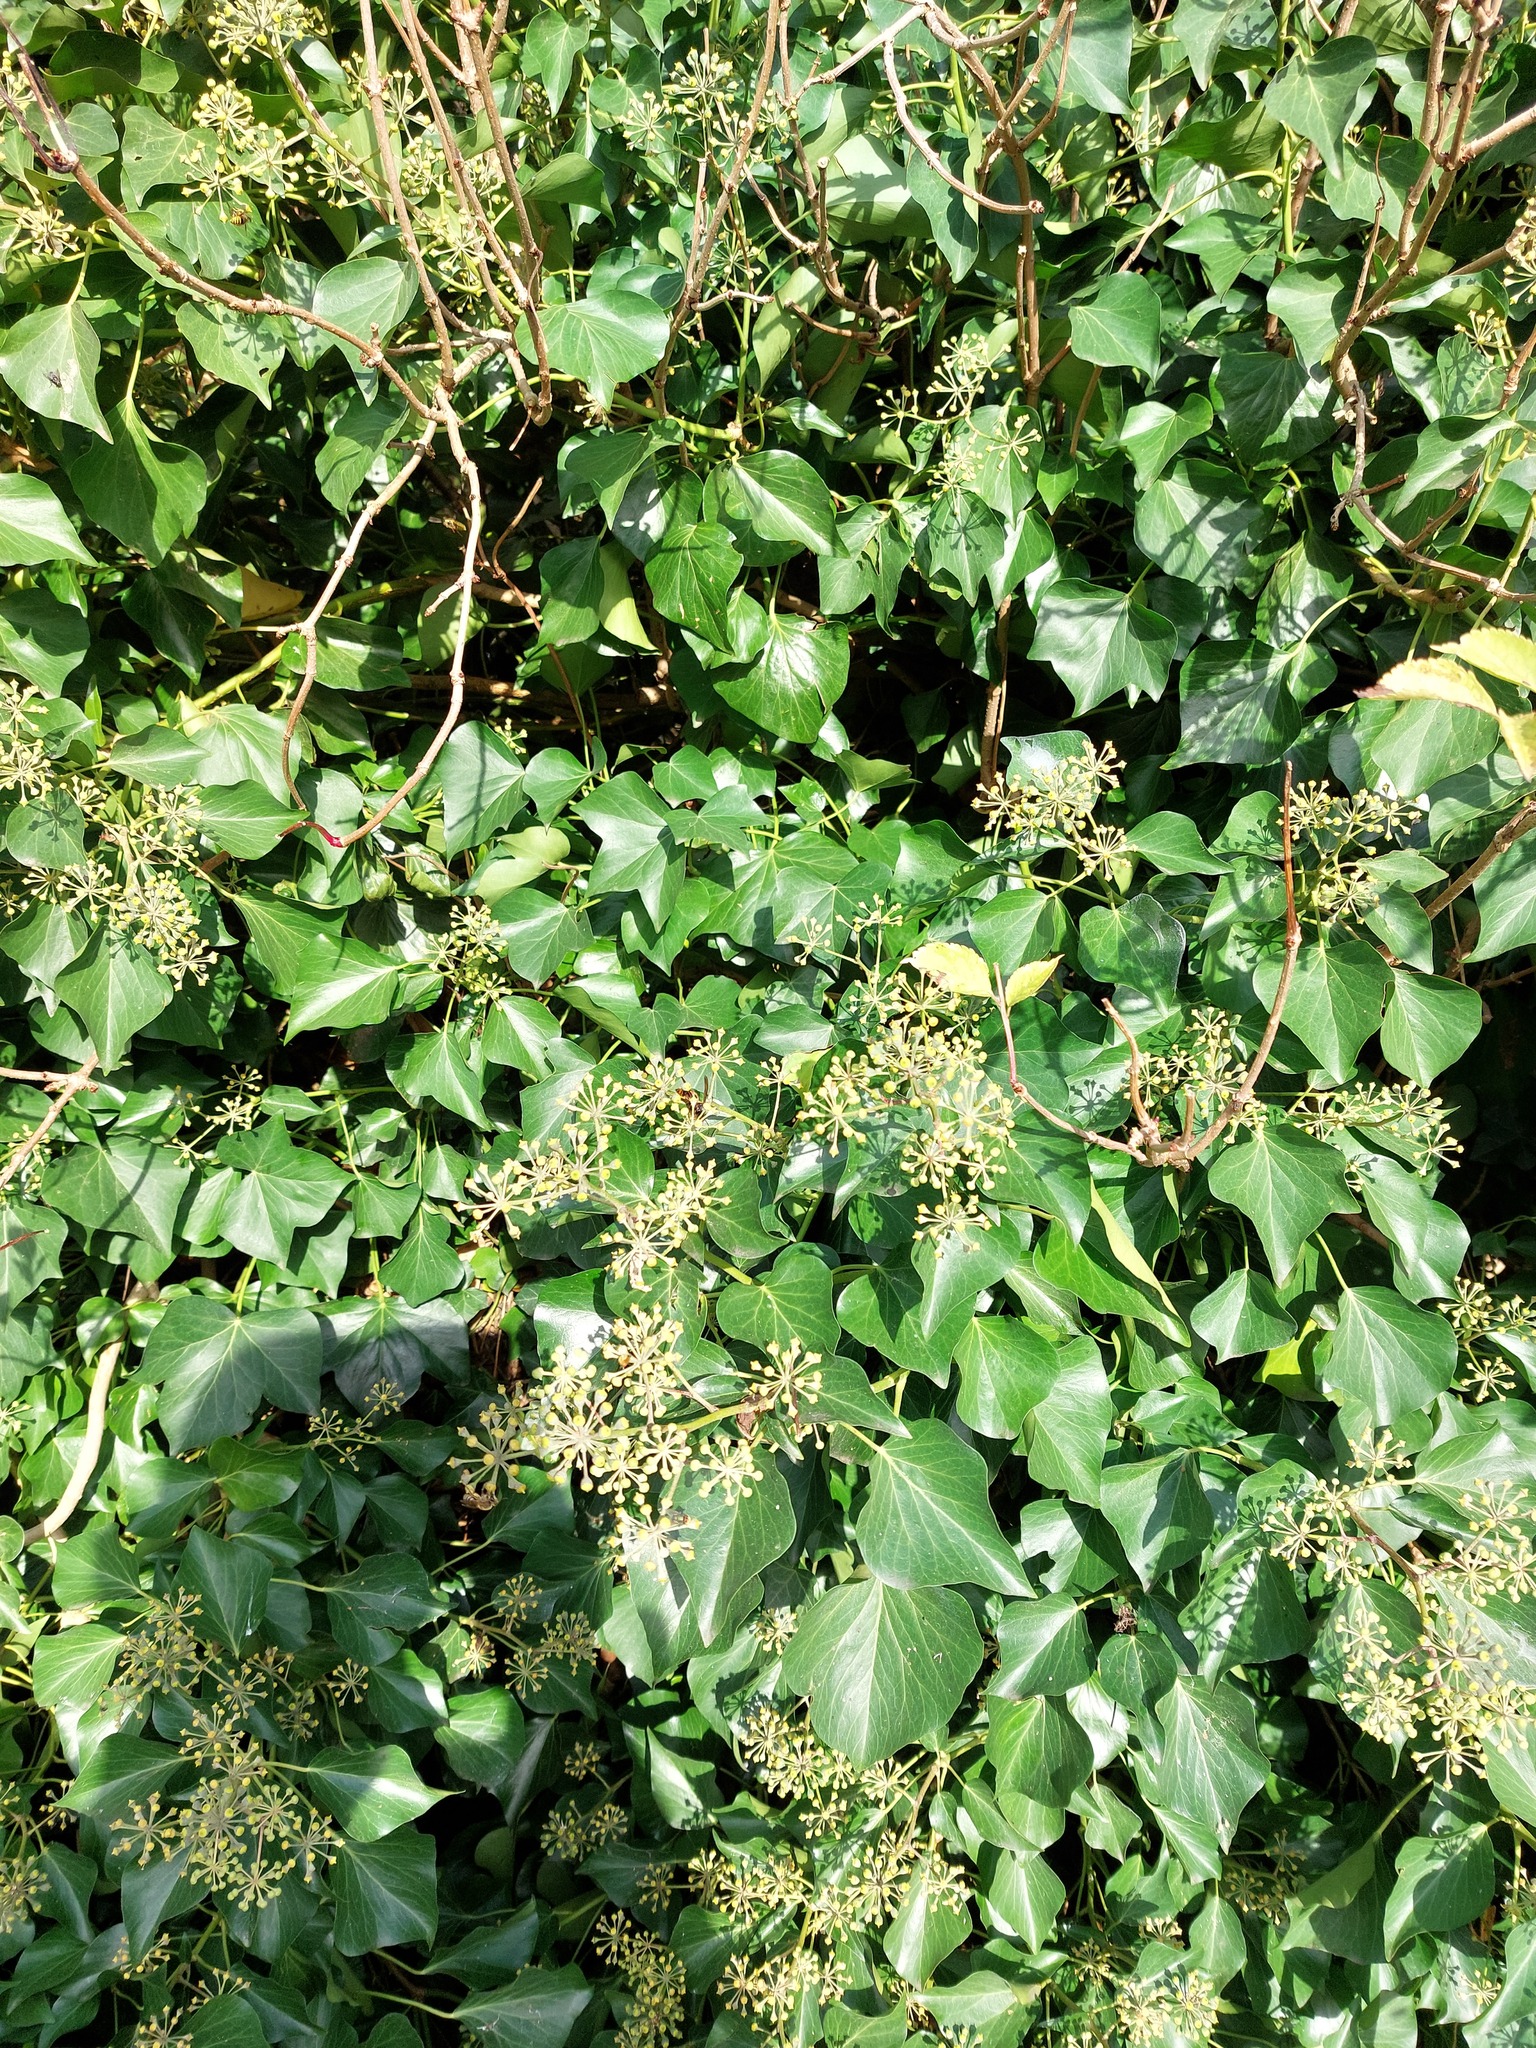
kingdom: Animalia
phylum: Arthropoda
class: Insecta
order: Hymenoptera
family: Vespidae
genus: Vespa
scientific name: Vespa velutina
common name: Asian hornet
